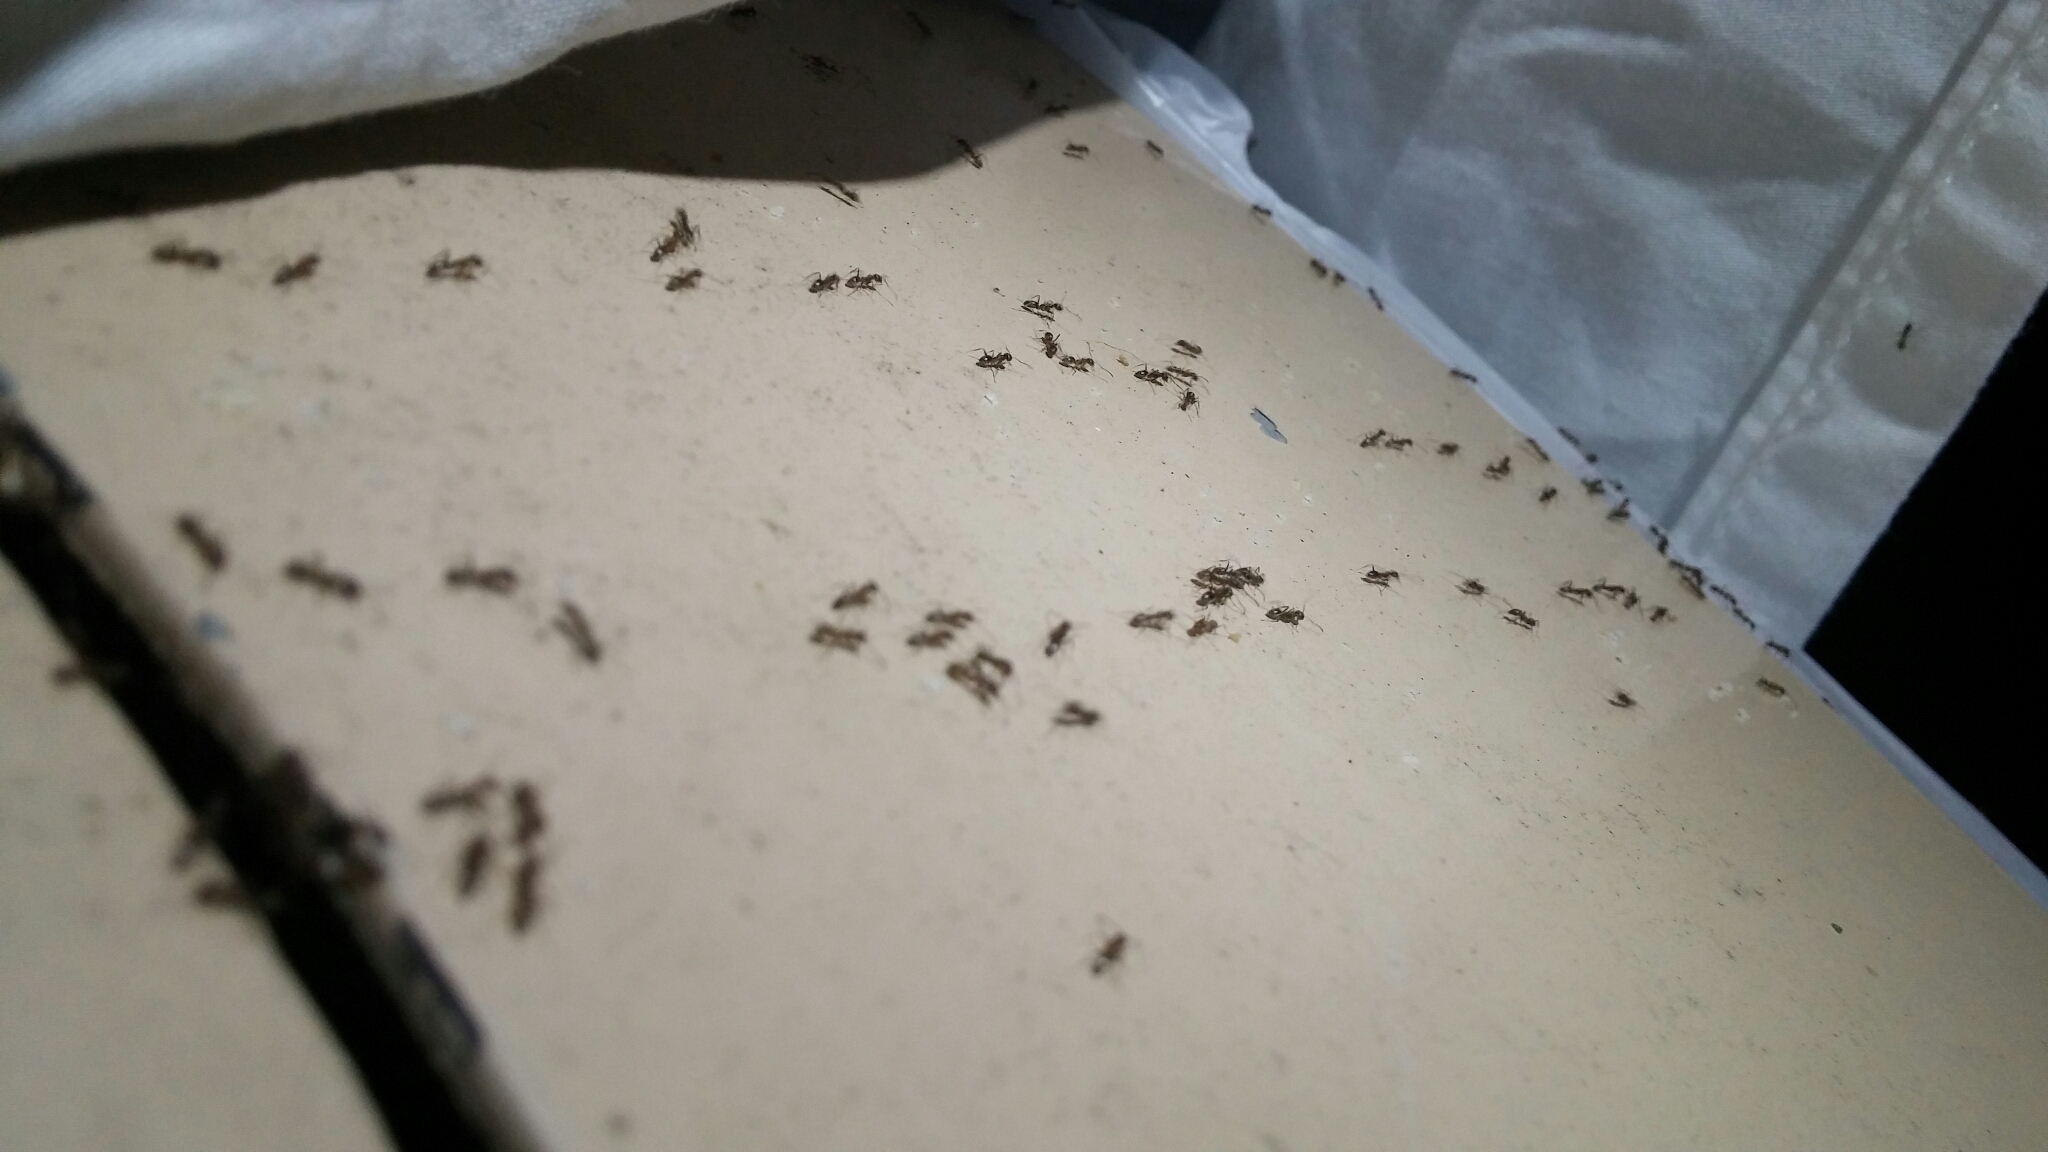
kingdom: Animalia
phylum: Arthropoda
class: Insecta
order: Hymenoptera
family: Formicidae
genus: Linepithema
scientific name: Linepithema humile
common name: Argentine ant
